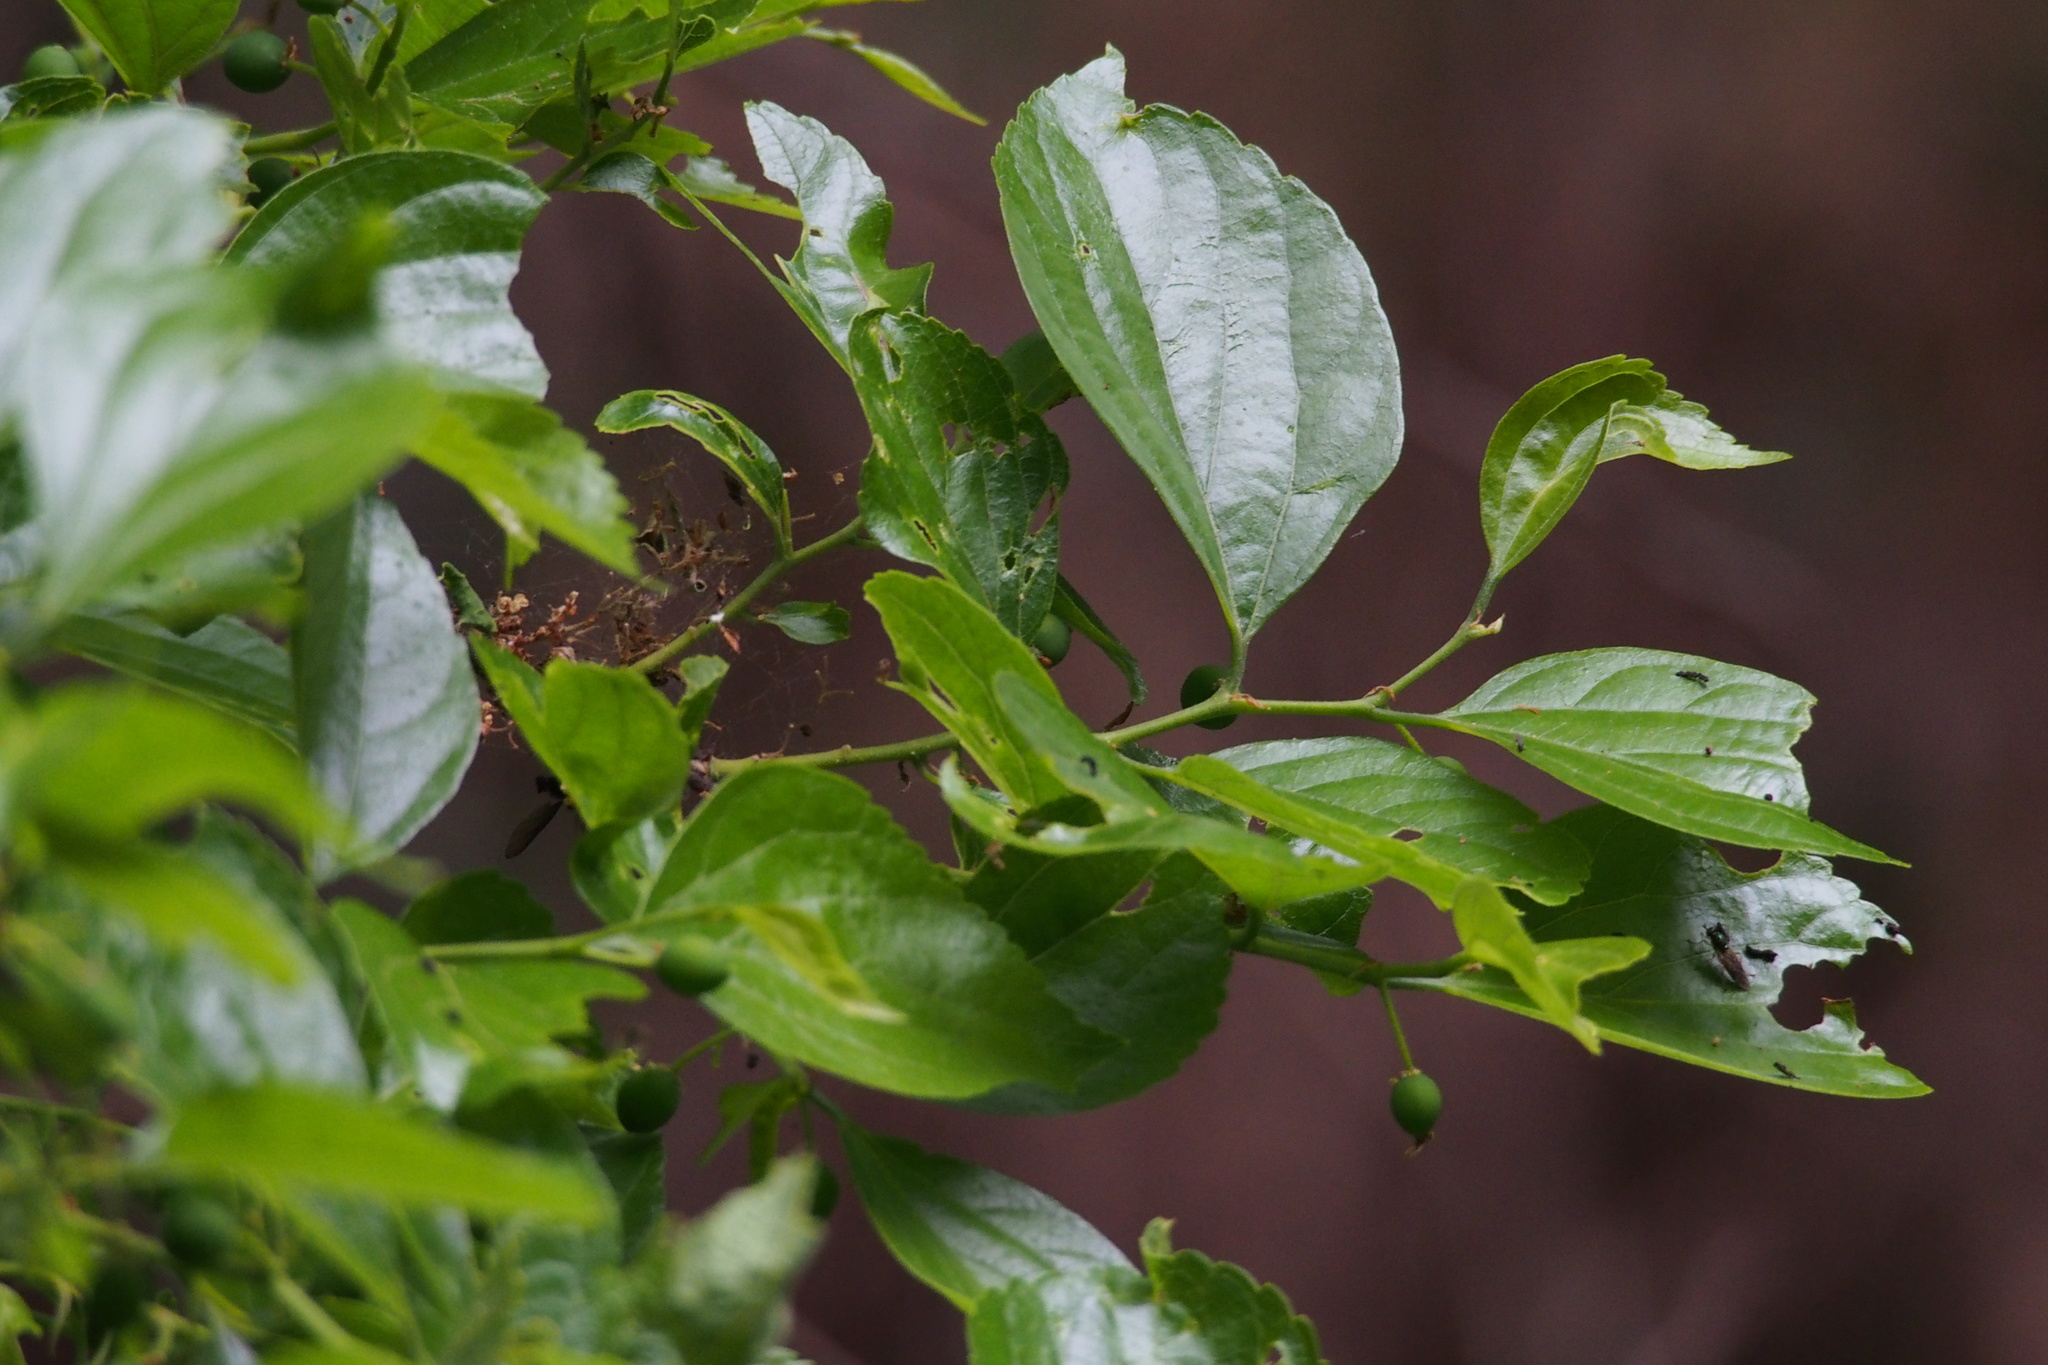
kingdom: Plantae
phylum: Tracheophyta
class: Magnoliopsida
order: Rosales
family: Cannabaceae
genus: Celtis
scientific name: Celtis sinensis
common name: Chinese hackberry
